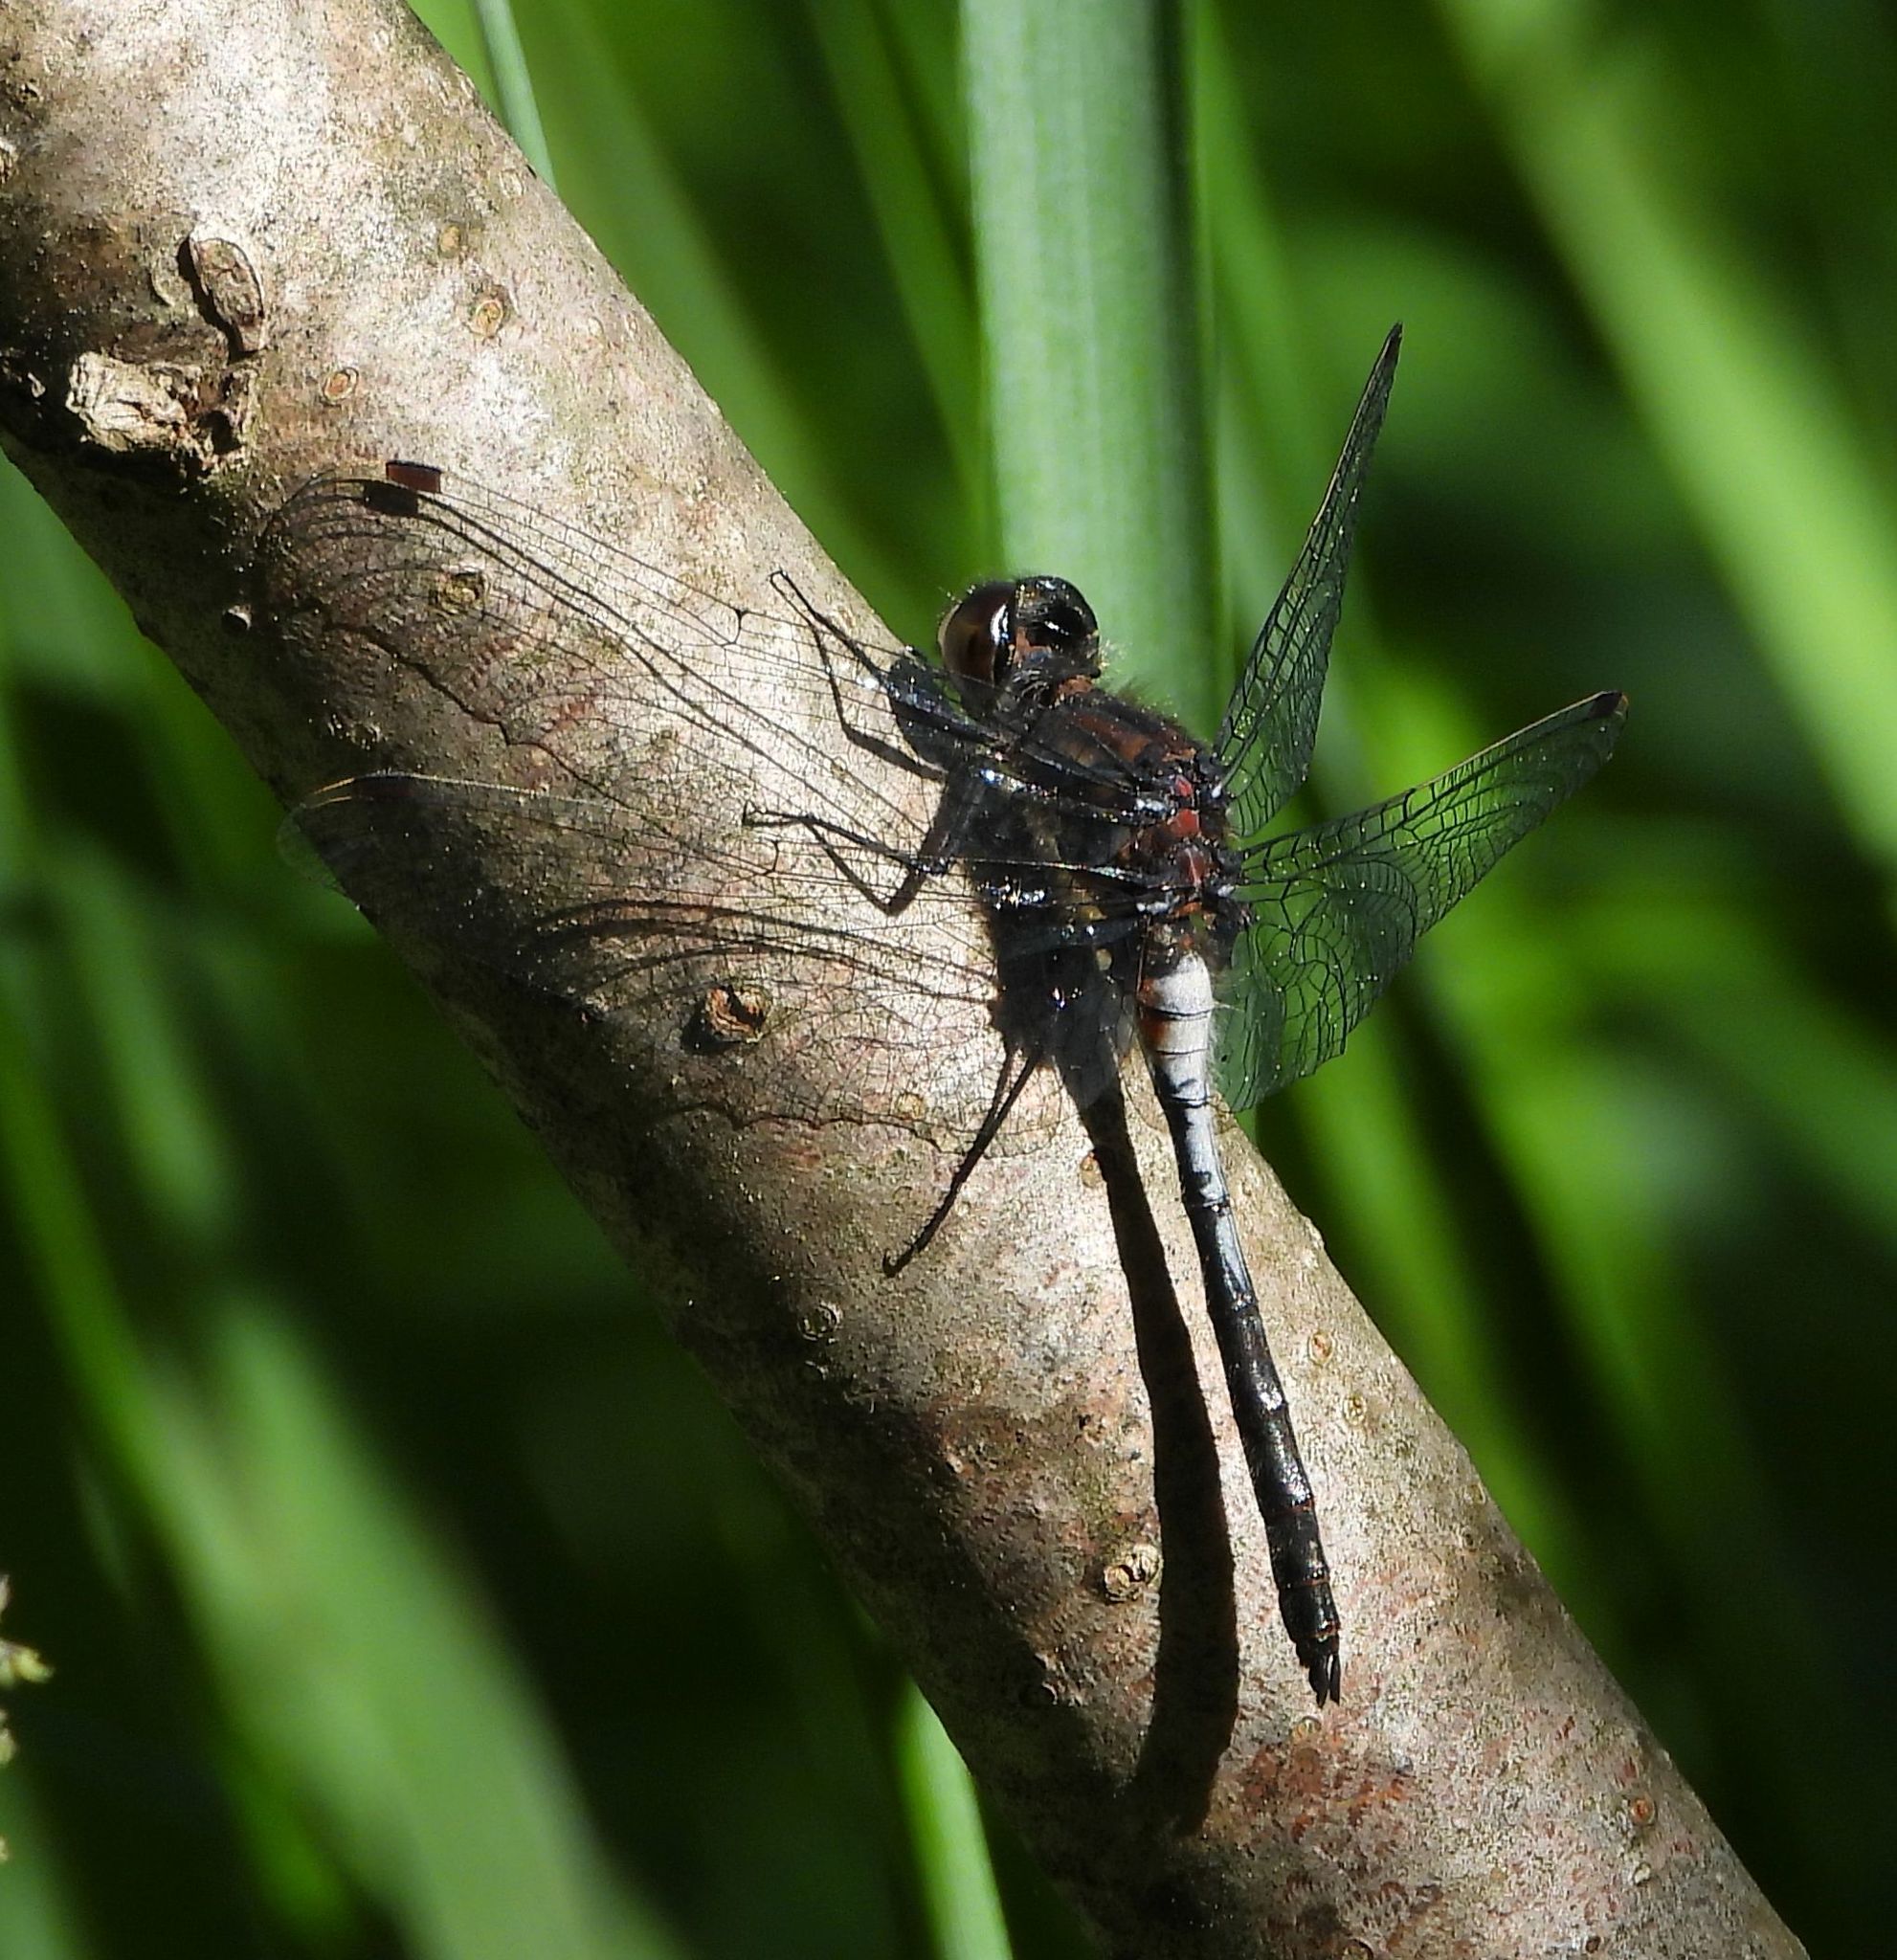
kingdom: Animalia
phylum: Arthropoda
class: Insecta
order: Odonata
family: Libellulidae
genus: Leucorrhinia
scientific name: Leucorrhinia proxima
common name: Belted whiteface
